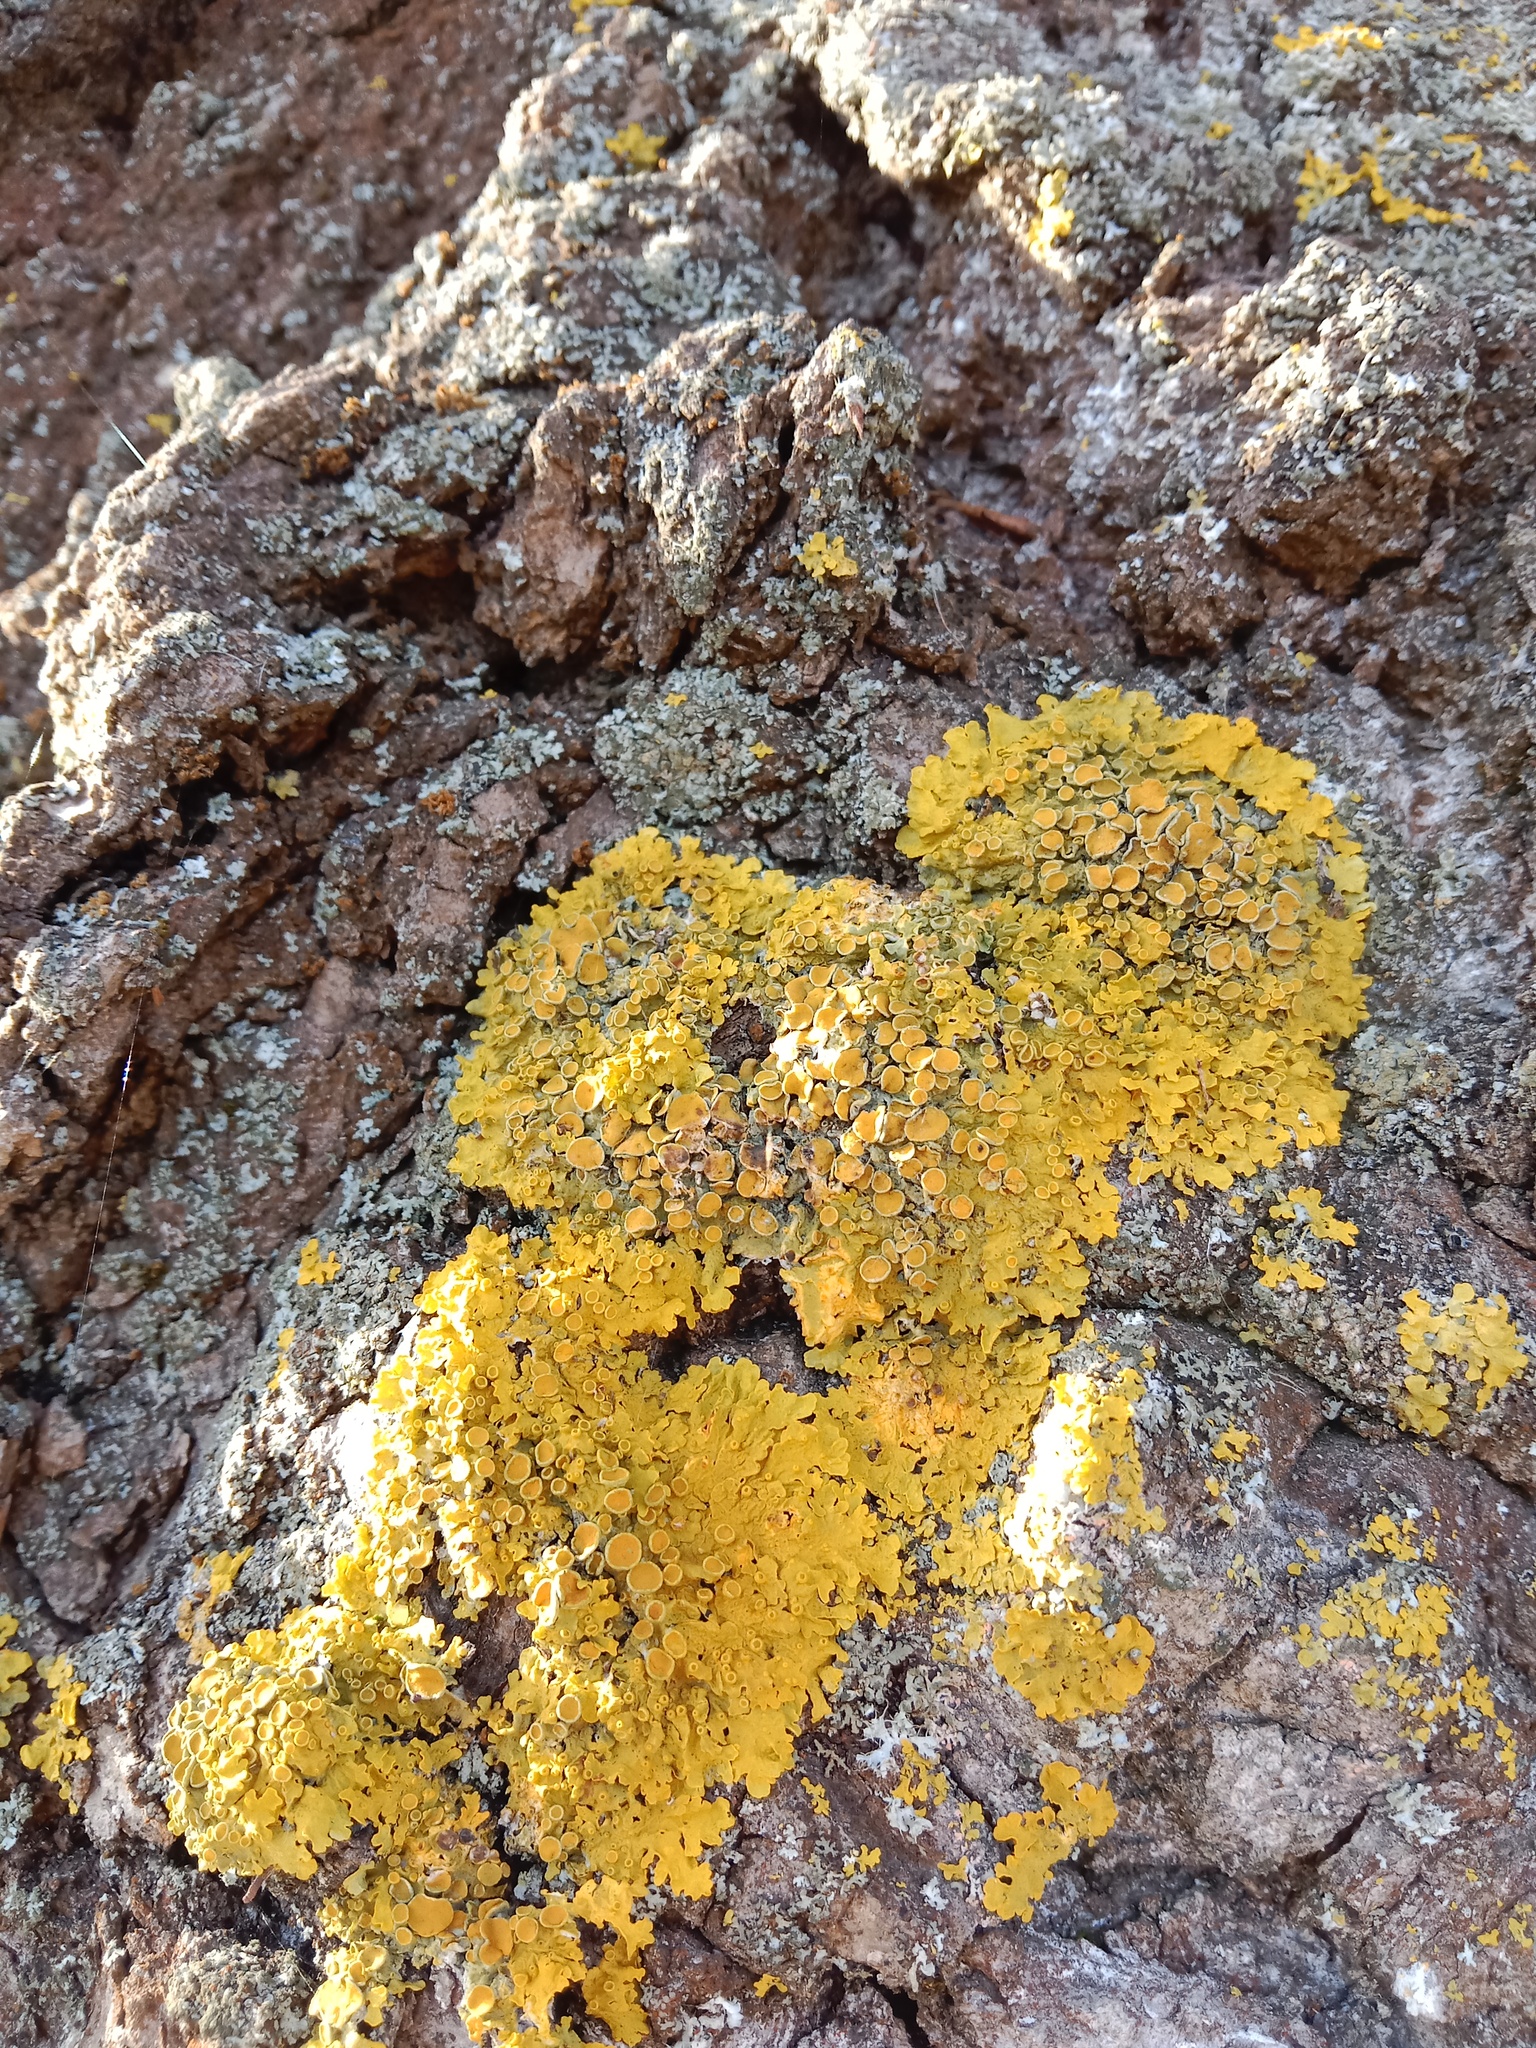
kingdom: Fungi
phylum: Ascomycota
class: Lecanoromycetes
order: Teloschistales
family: Teloschistaceae
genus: Xanthoria
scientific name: Xanthoria parietina
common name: Common orange lichen
